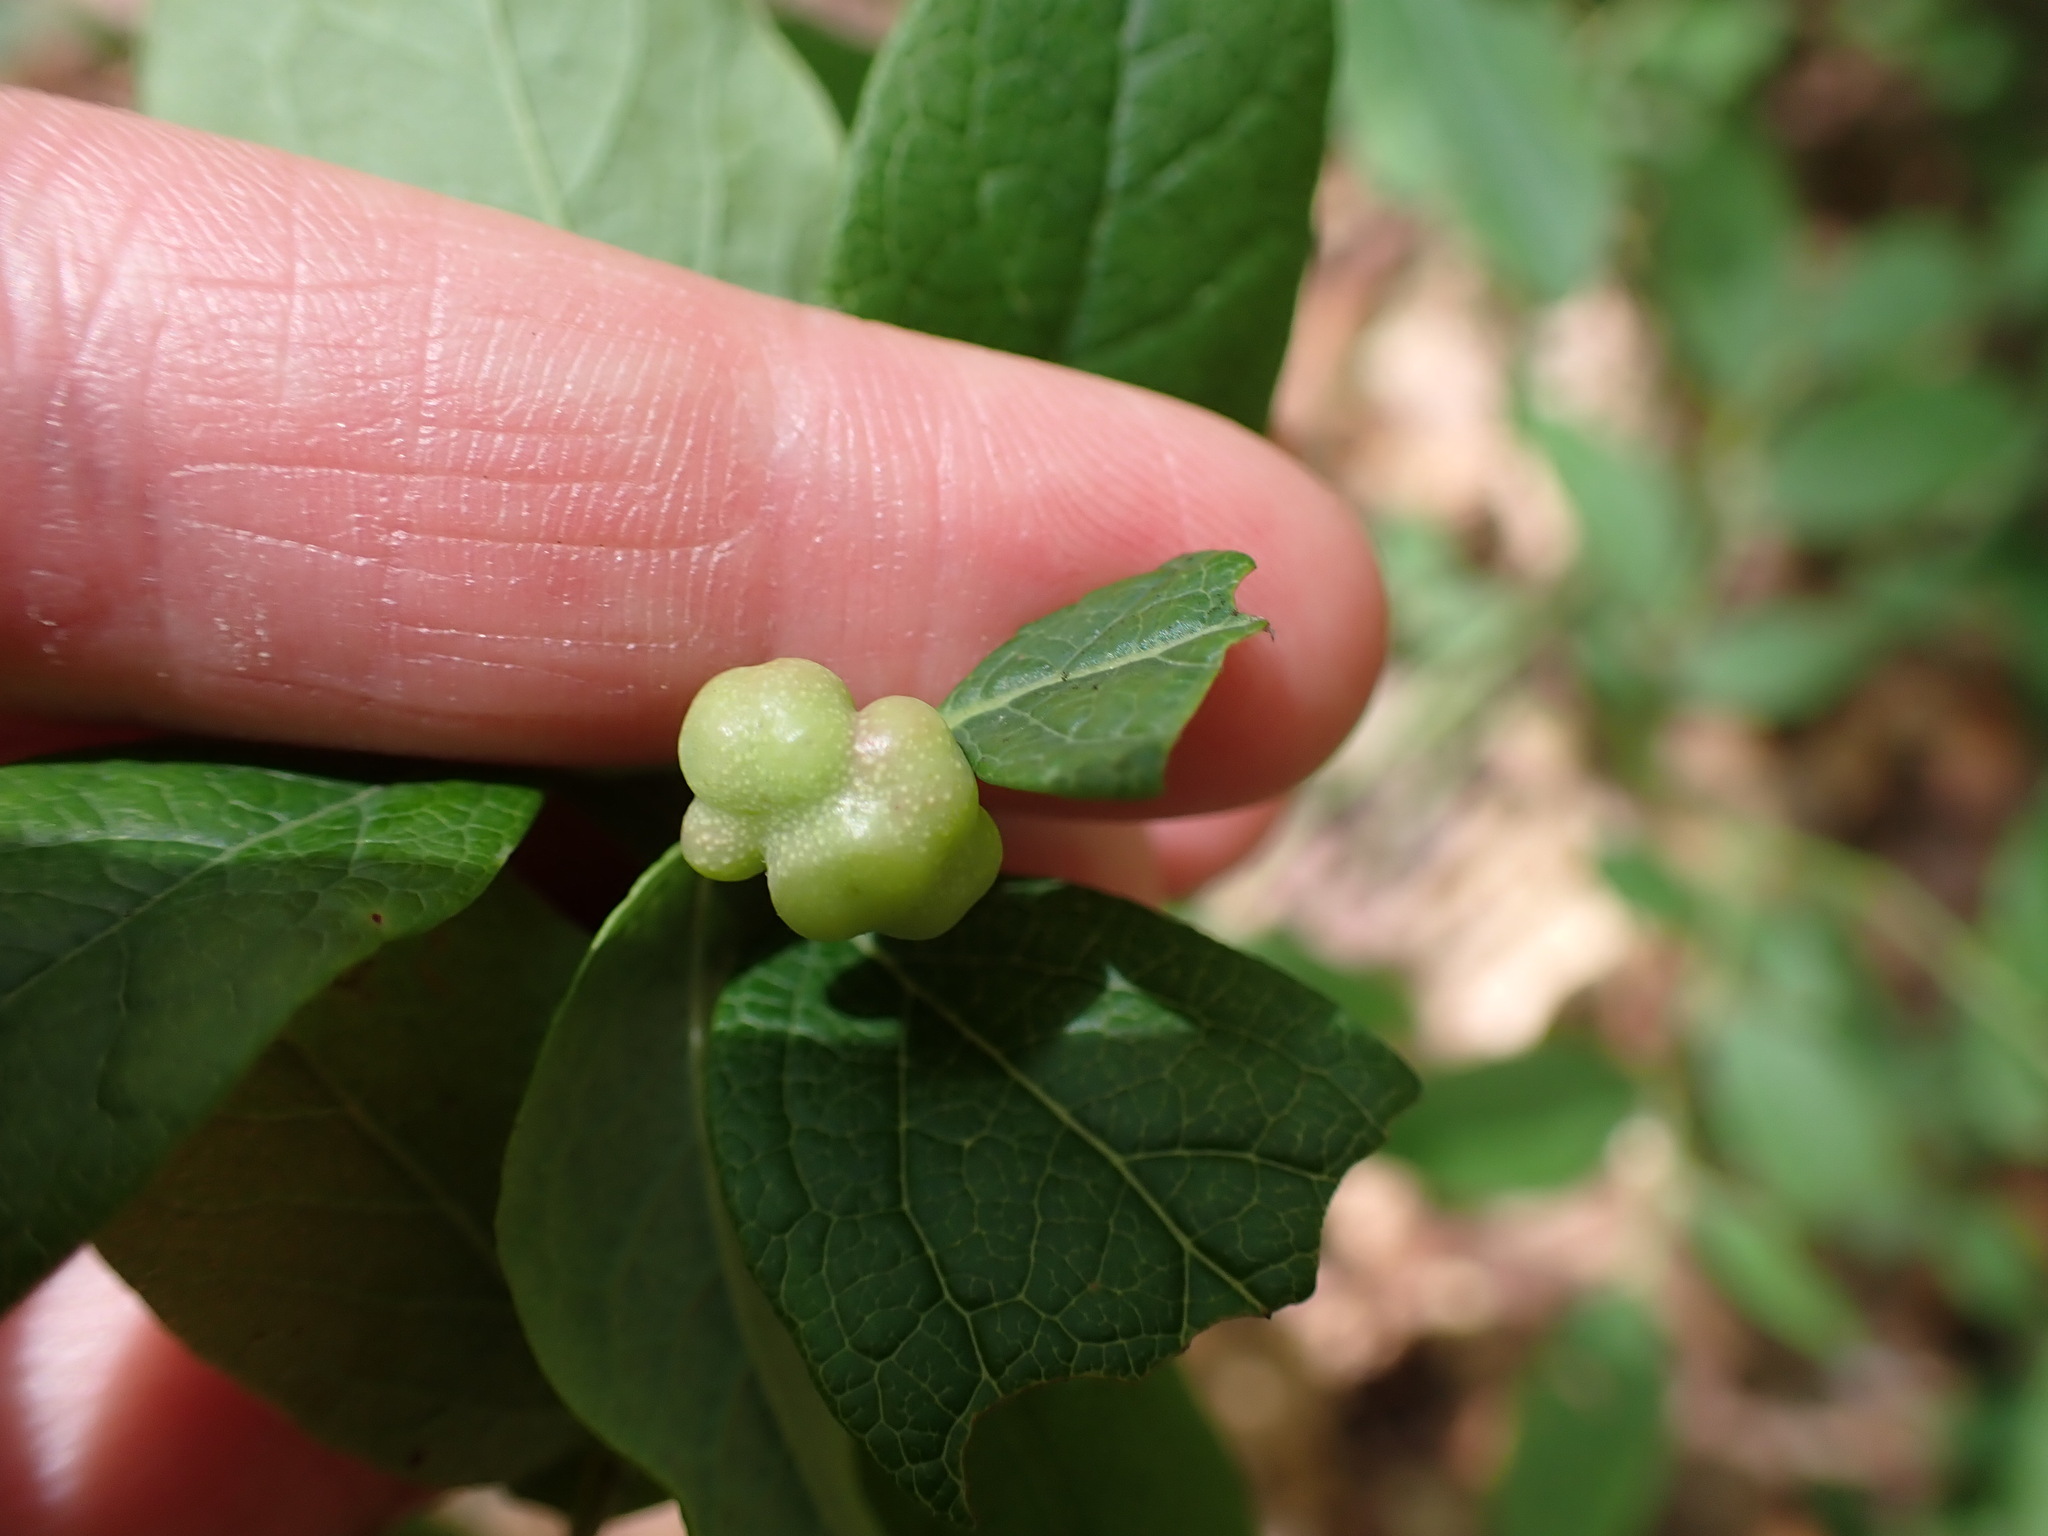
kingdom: Animalia
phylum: Arthropoda
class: Insecta
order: Hymenoptera
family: Pteromalidae
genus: Hemadas
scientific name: Hemadas nubilipennis
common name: Blueberry stem gall wasp
